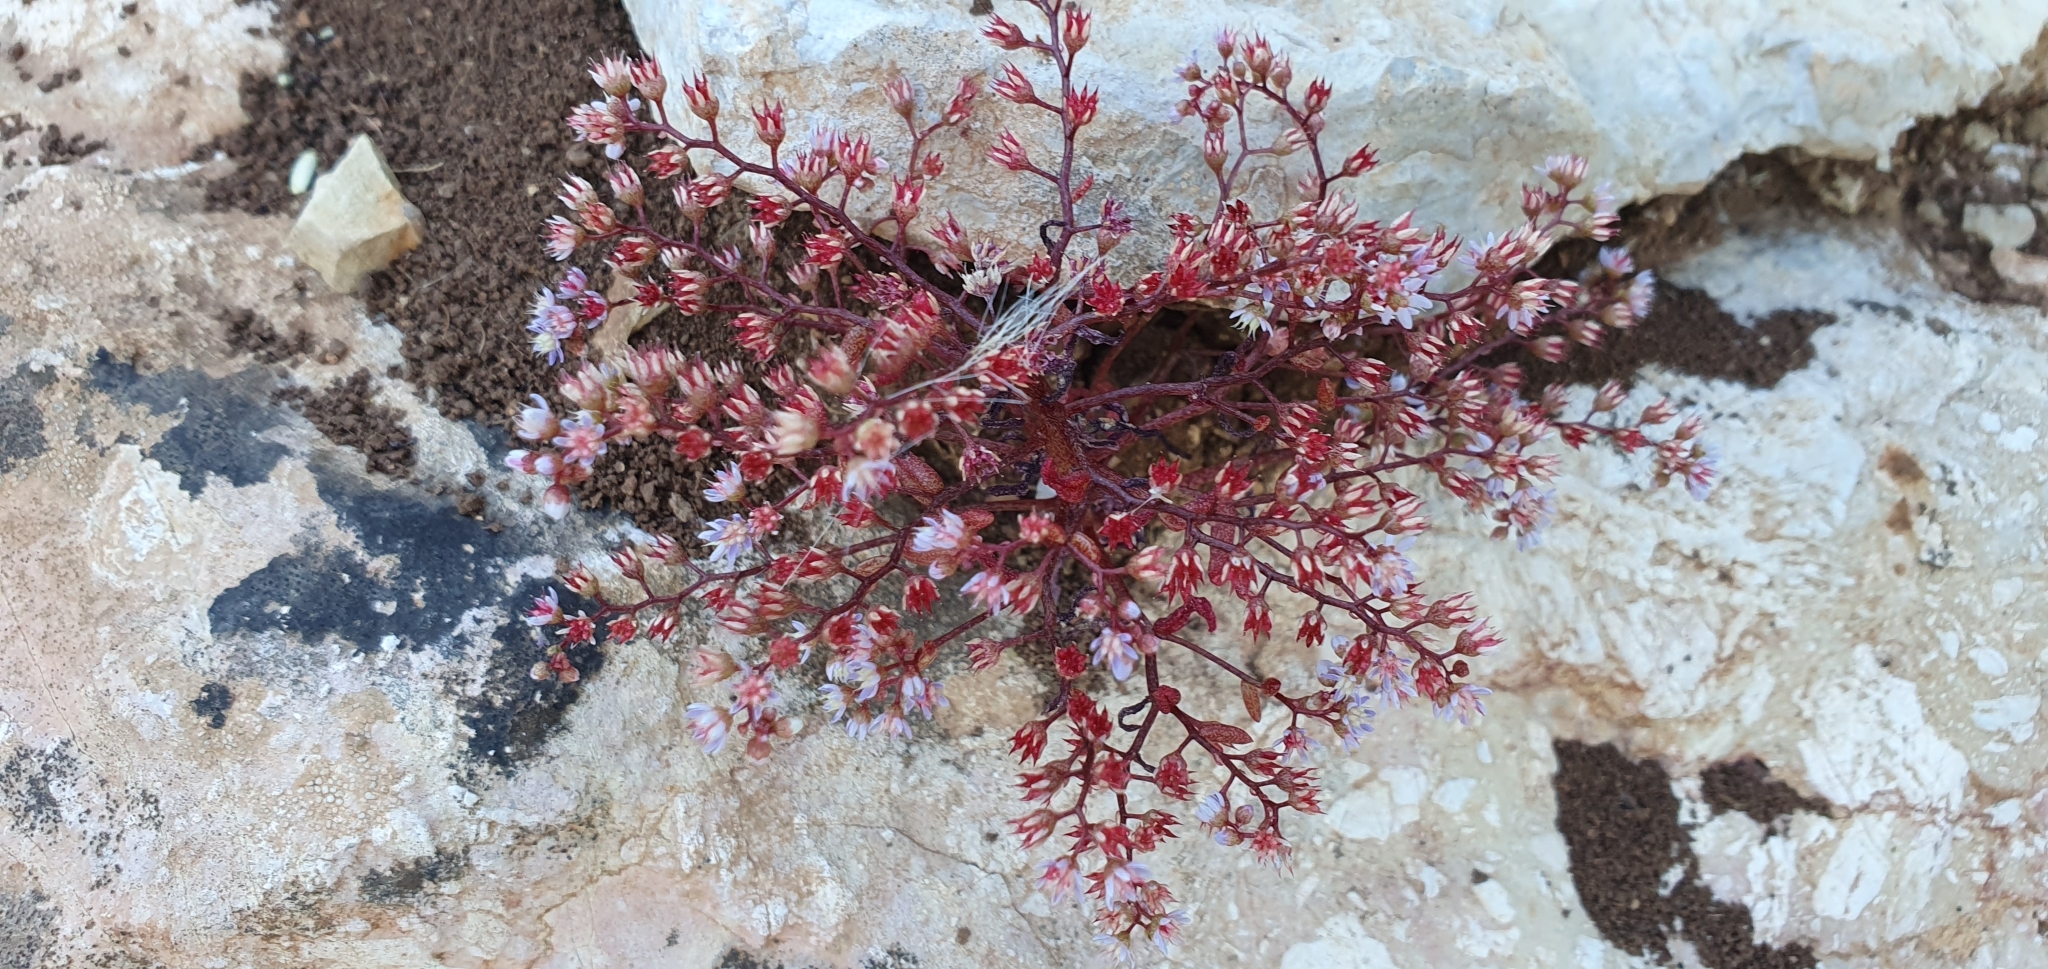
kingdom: Plantae
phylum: Tracheophyta
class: Magnoliopsida
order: Saxifragales
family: Crassulaceae
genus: Sedum
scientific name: Sedum caeruleum
